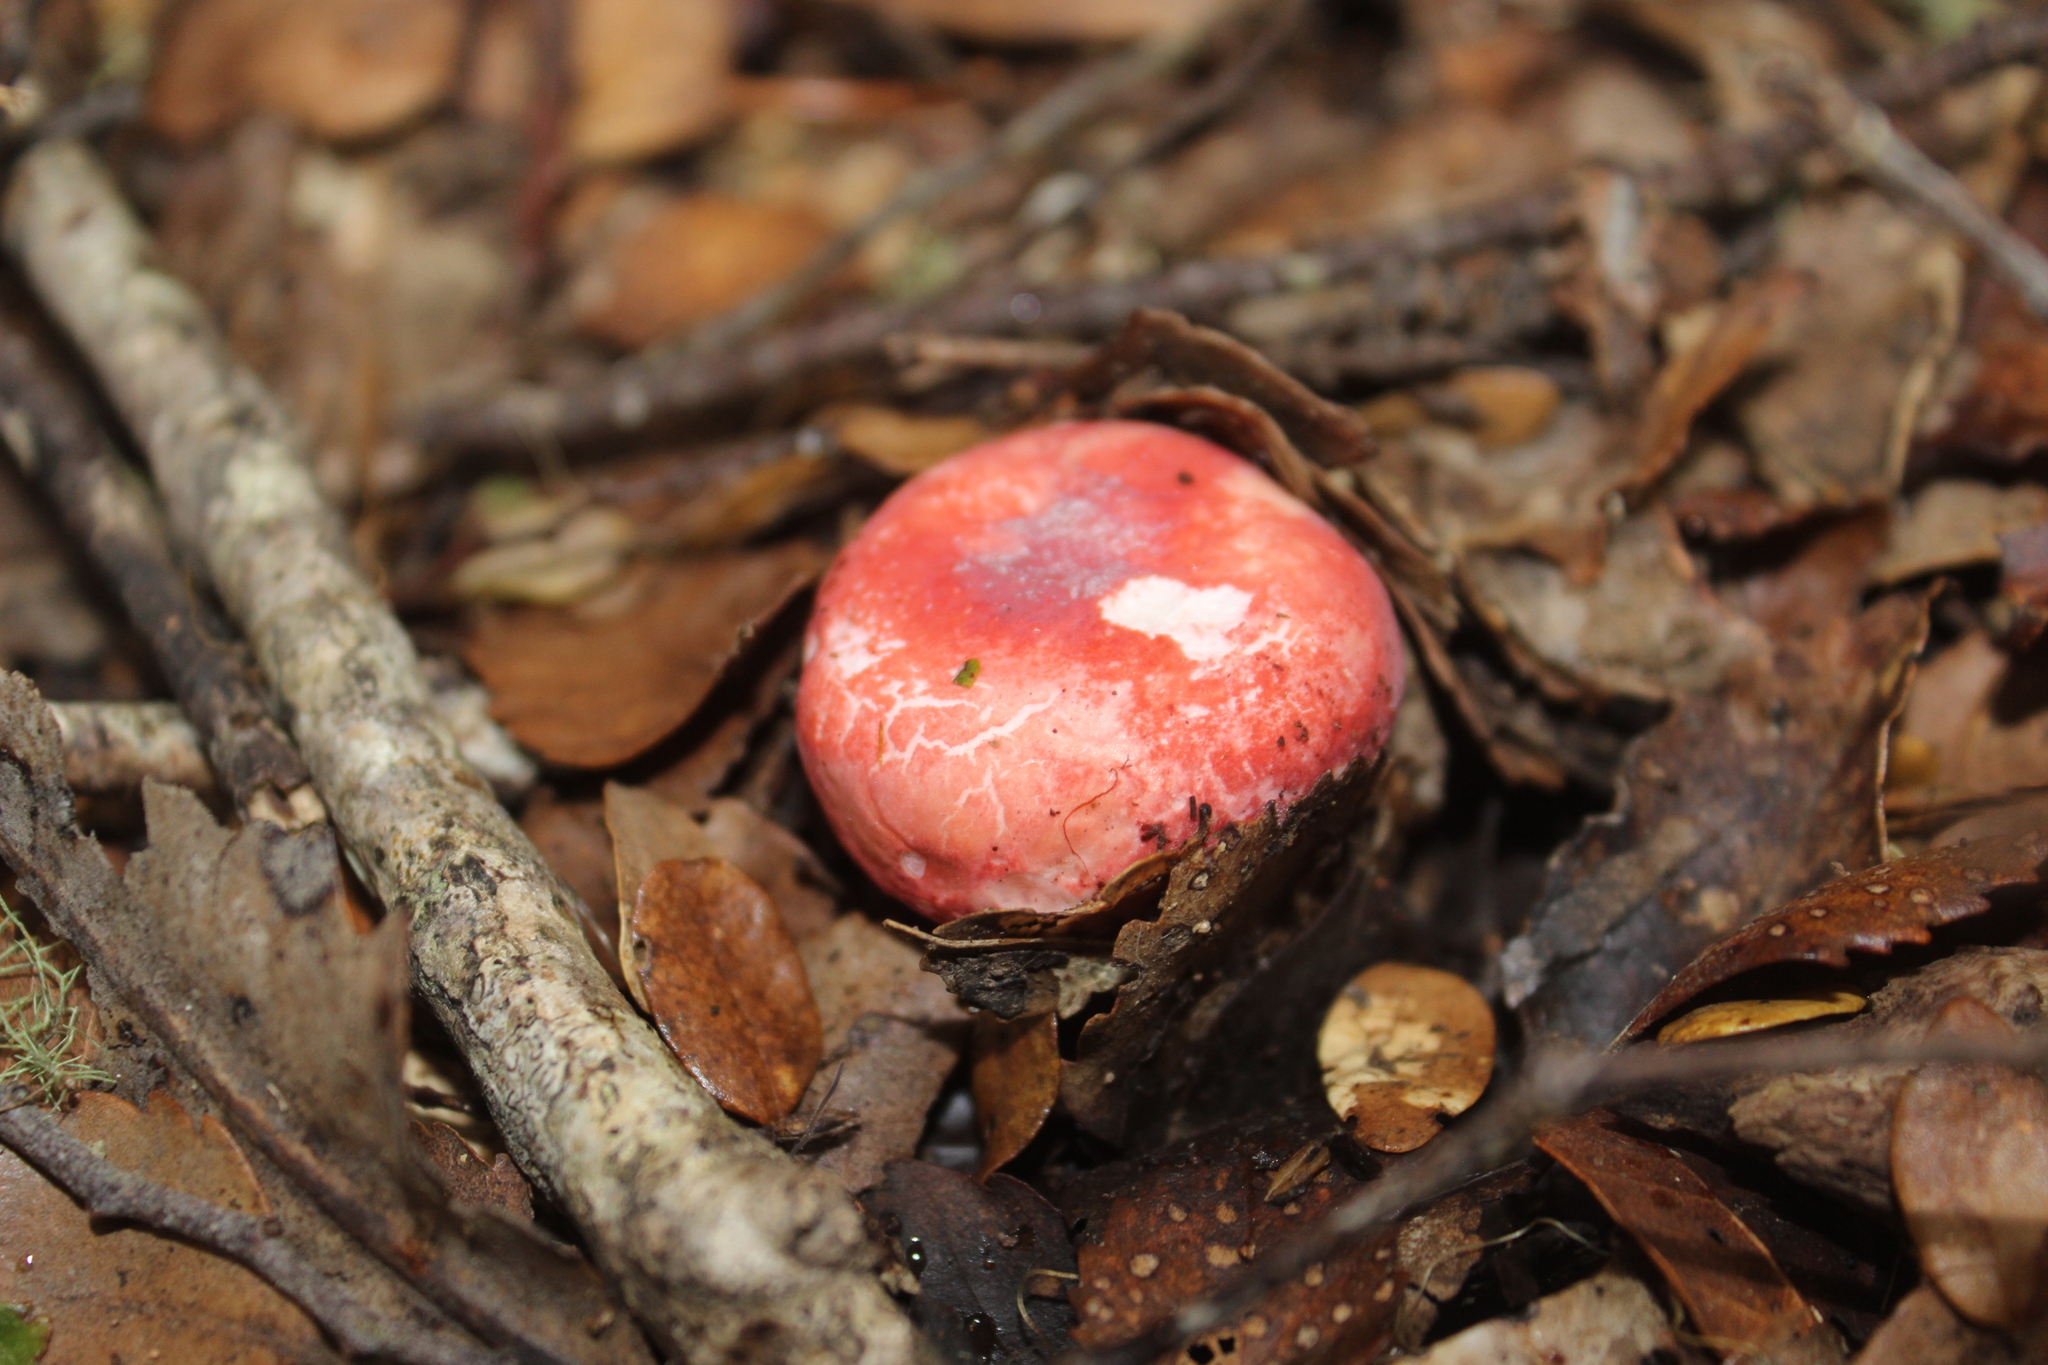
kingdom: Fungi
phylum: Basidiomycota
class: Agaricomycetes
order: Russulales
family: Russulaceae
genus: Russula
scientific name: Russula kermesina
